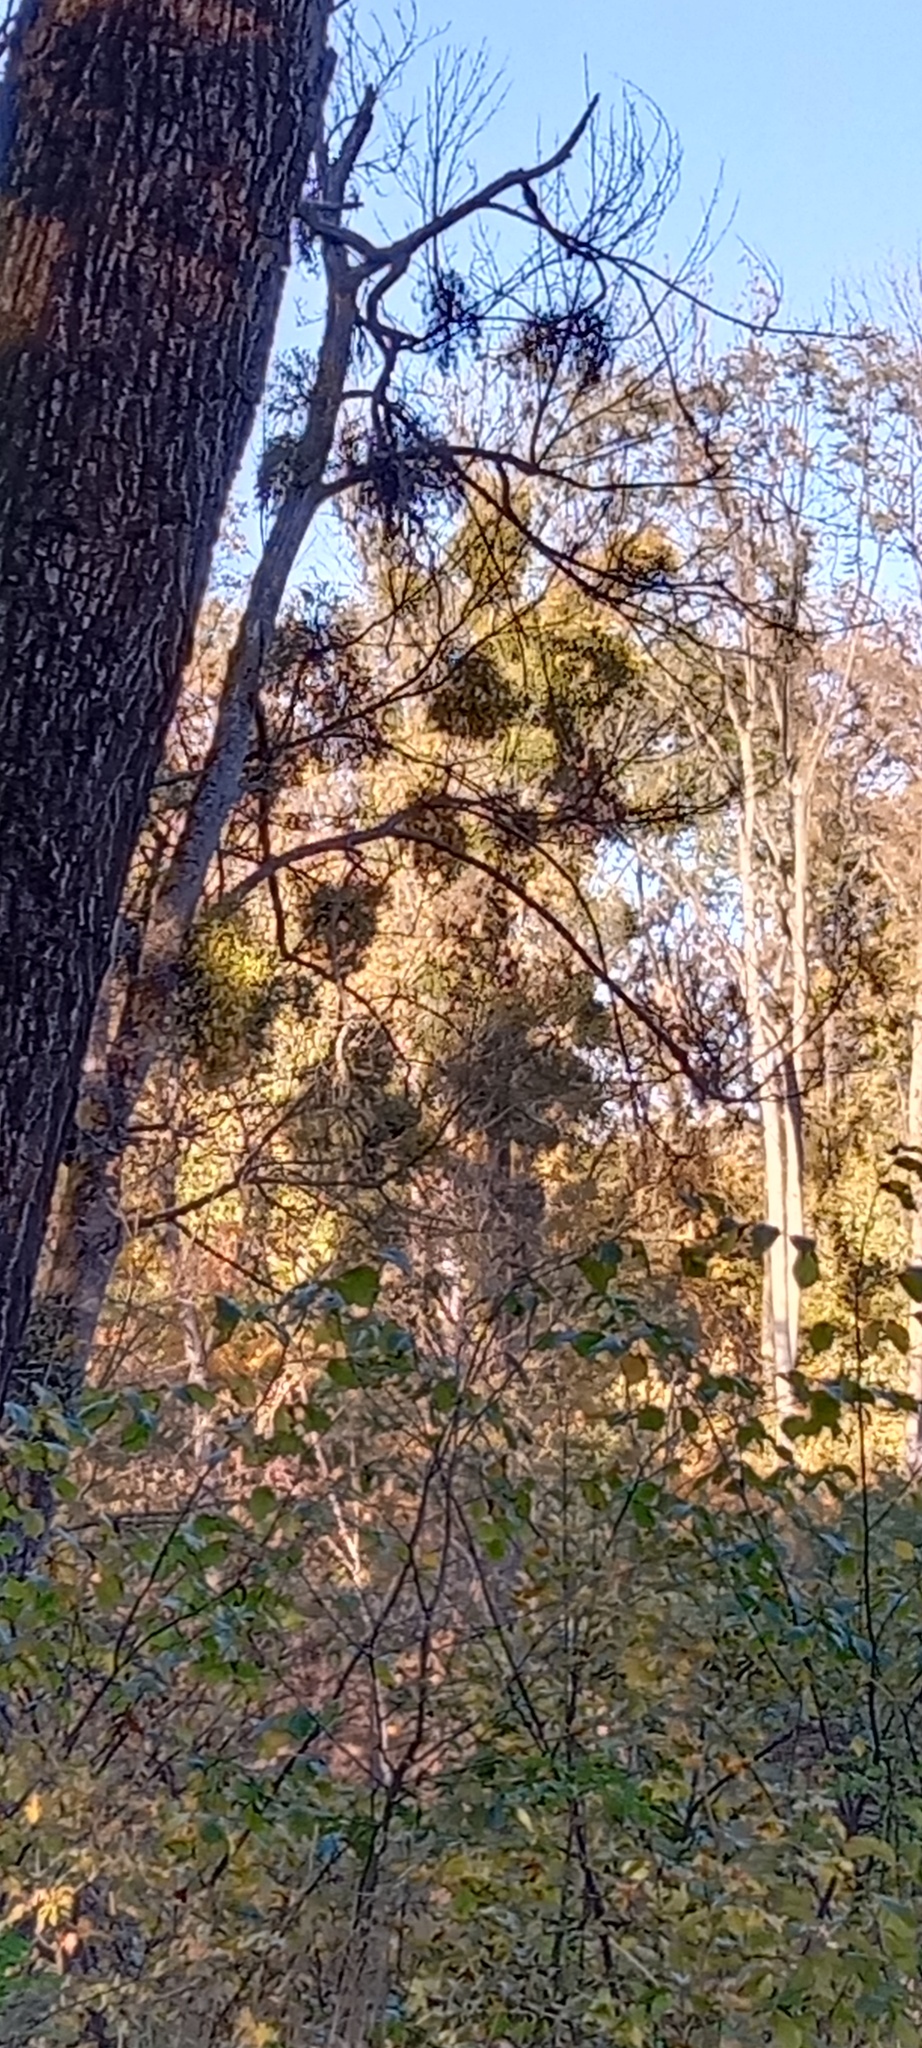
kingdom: Plantae
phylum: Tracheophyta
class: Magnoliopsida
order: Santalales
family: Viscaceae
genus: Viscum
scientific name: Viscum album
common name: Mistletoe
